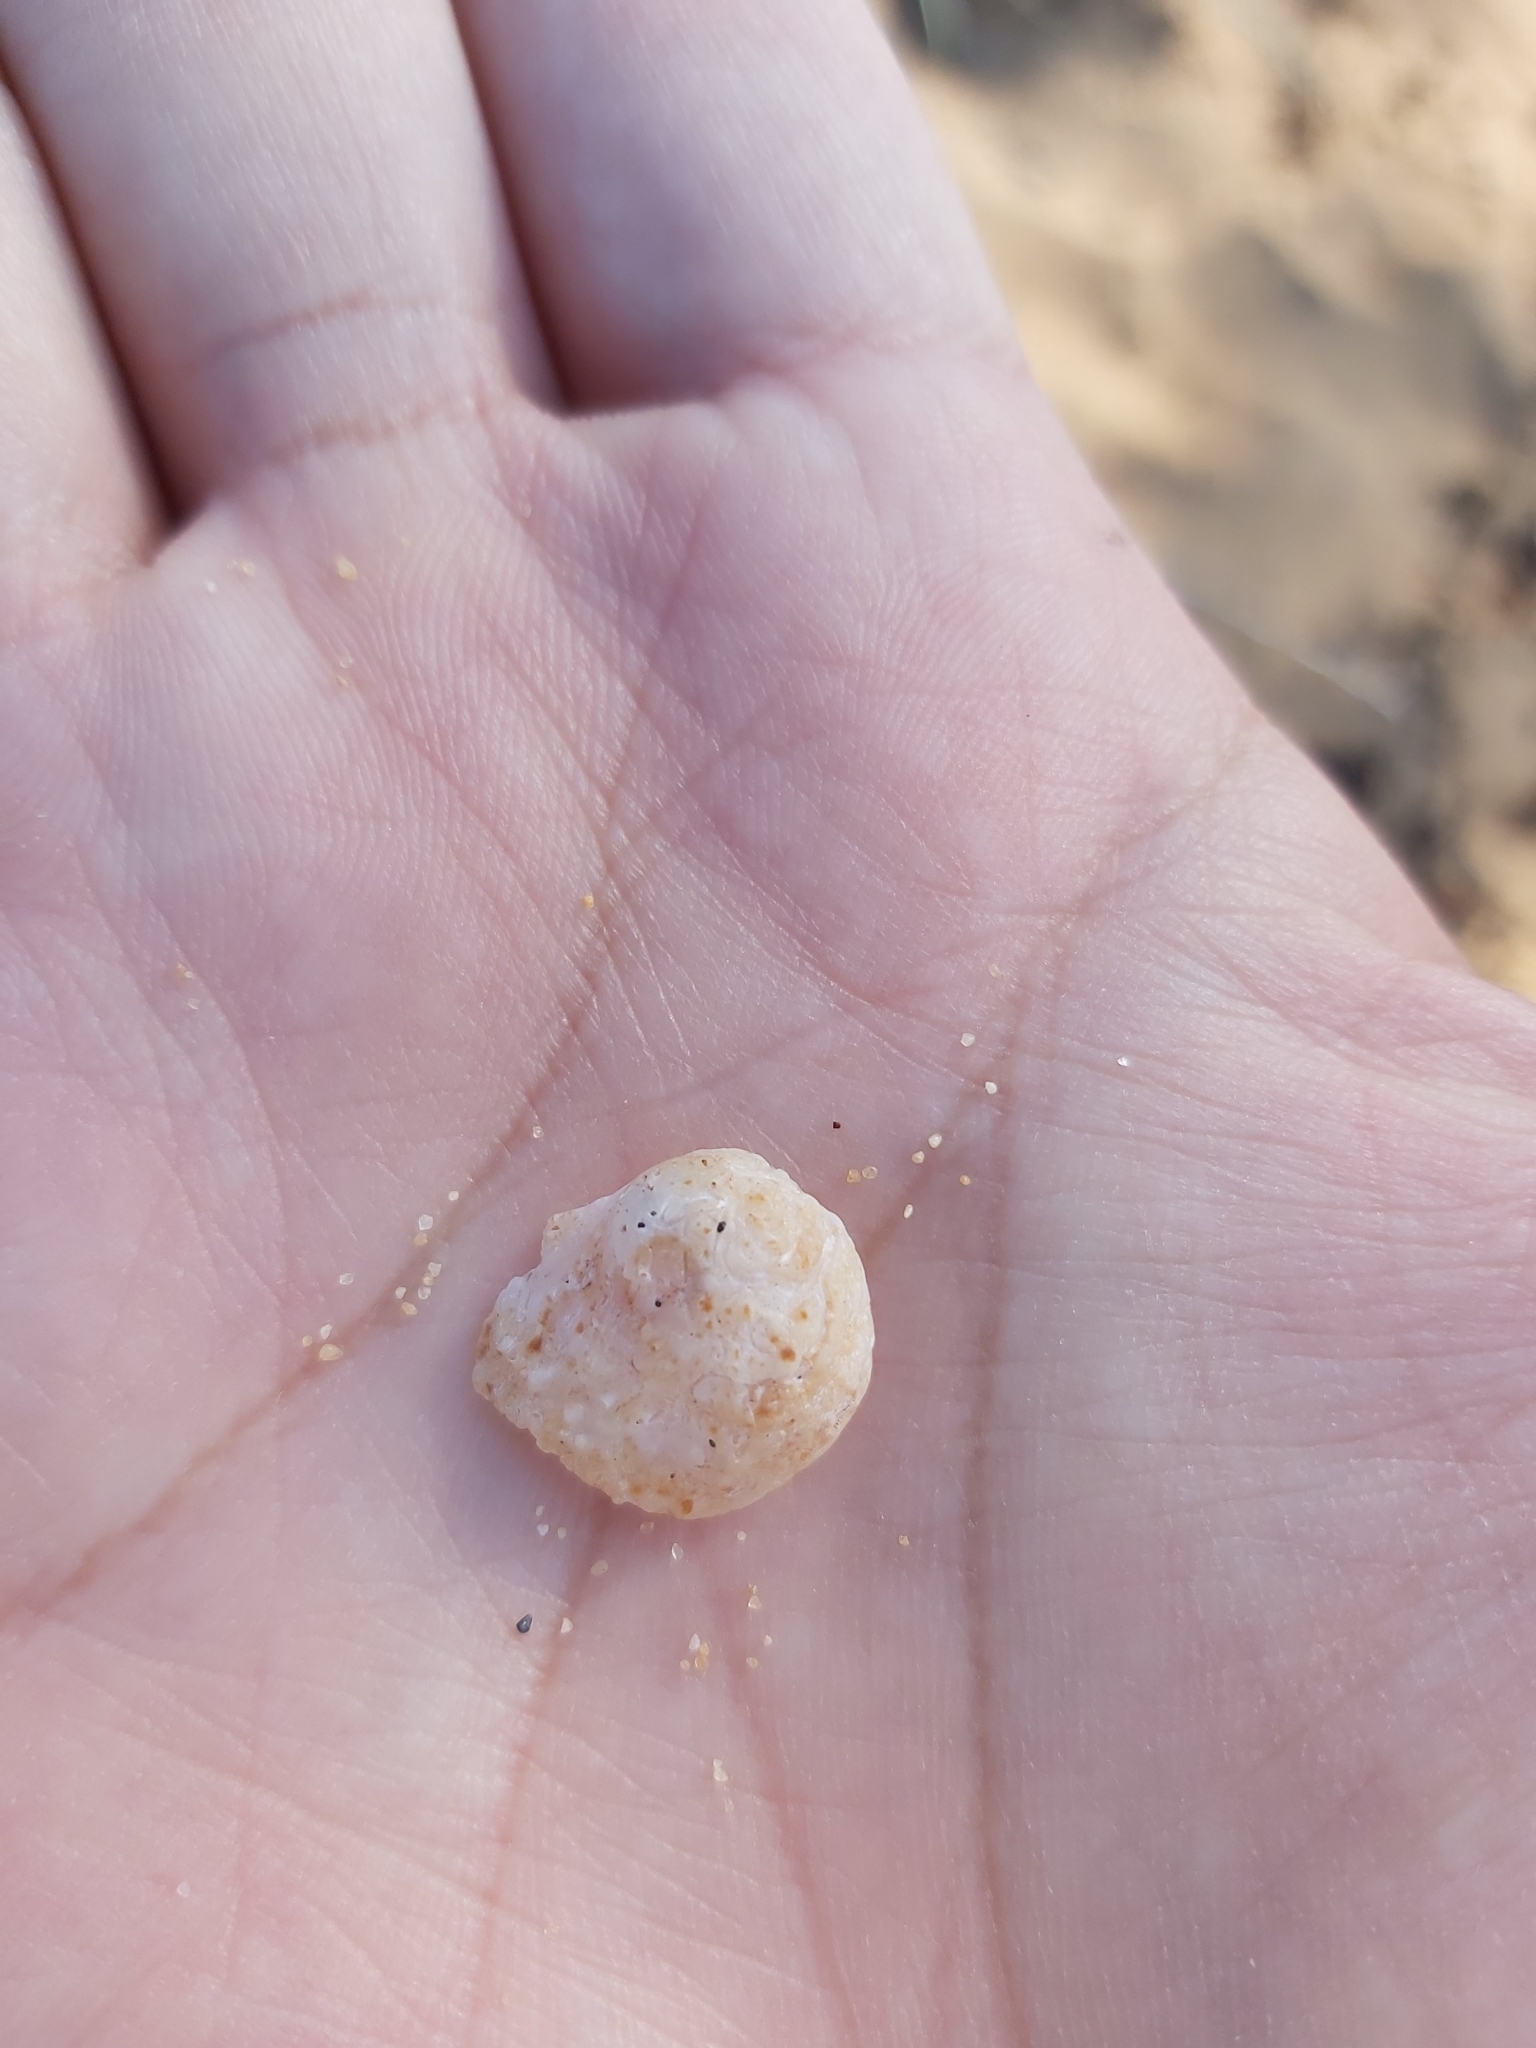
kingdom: Animalia
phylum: Mollusca
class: Gastropoda
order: Littorinimorpha
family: Calyptraeidae
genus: Bostrycapulus
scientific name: Bostrycapulus pritzkeri
